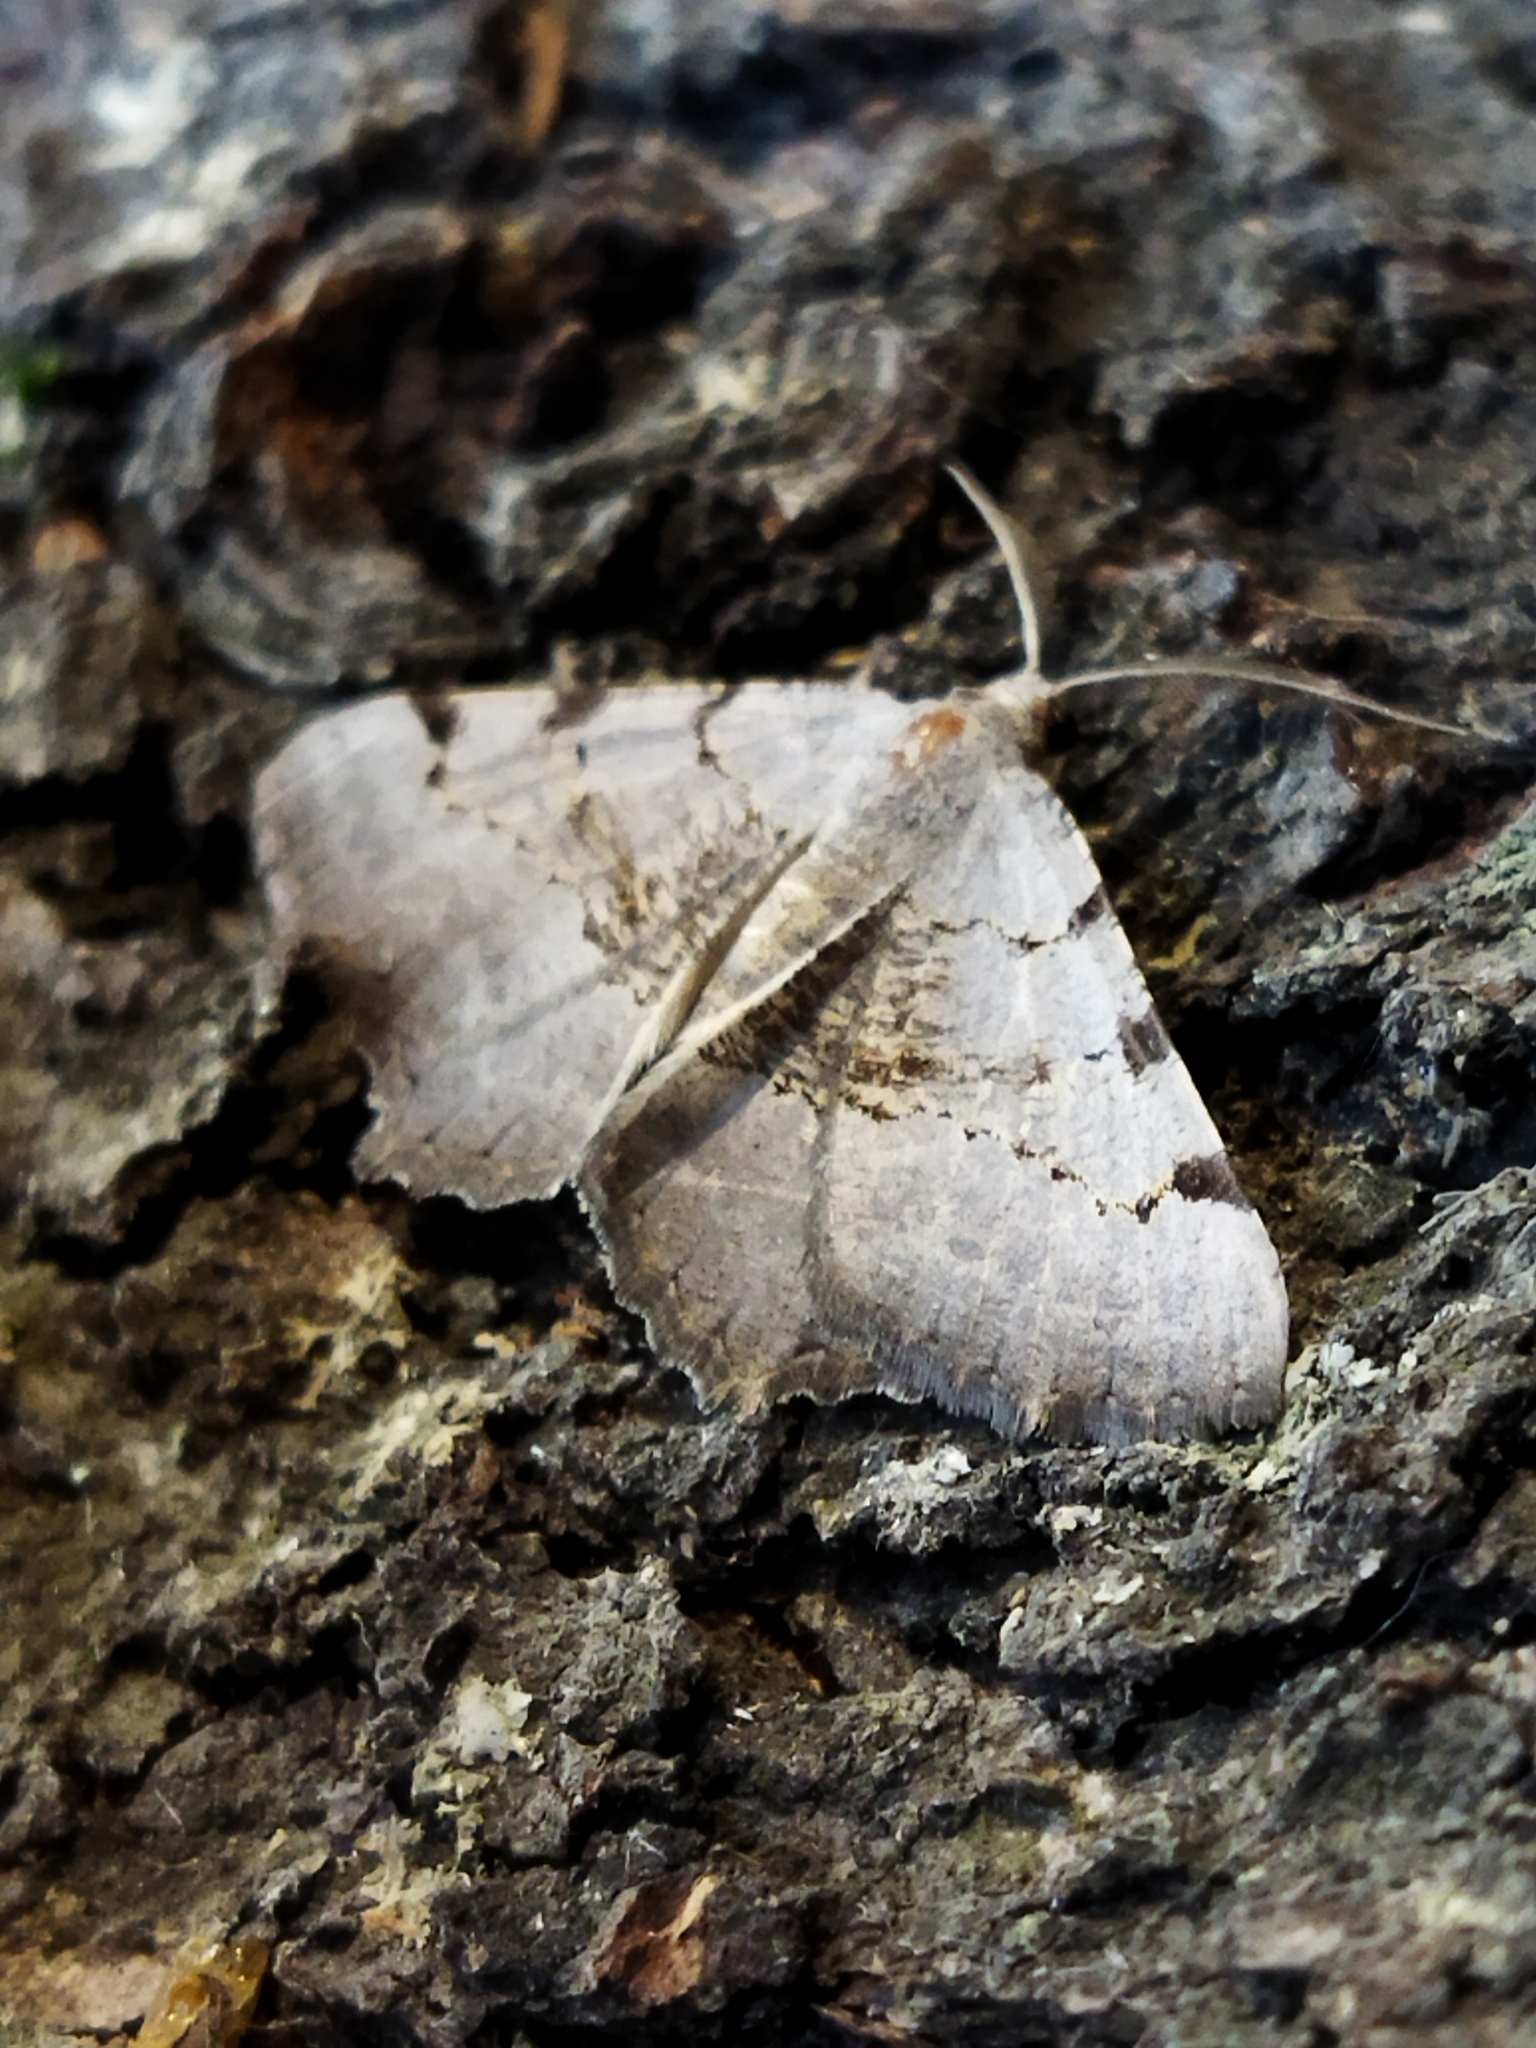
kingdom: Animalia
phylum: Arthropoda
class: Insecta
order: Lepidoptera
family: Geometridae
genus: Neognopharmia
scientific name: Neognopharmia stevenaria
